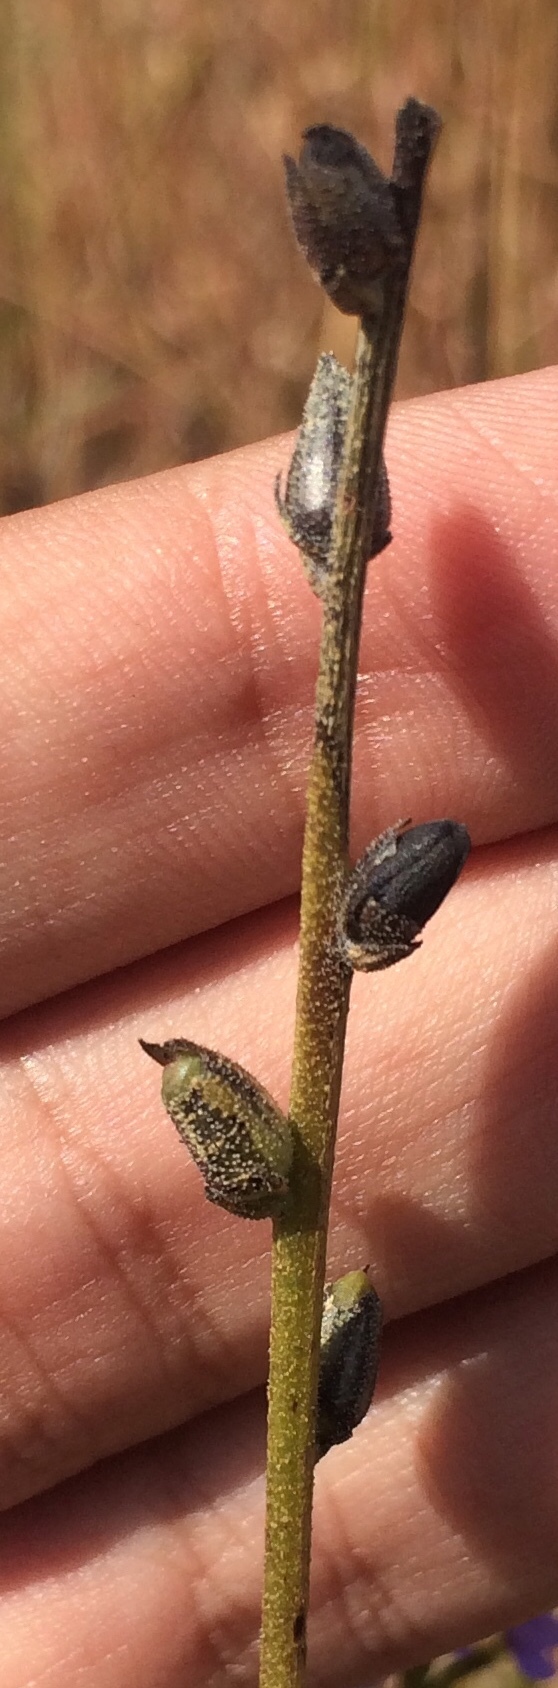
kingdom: Plantae
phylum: Tracheophyta
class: Magnoliopsida
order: Lamiales
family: Orobanchaceae
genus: Buchnera
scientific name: Buchnera hispida
